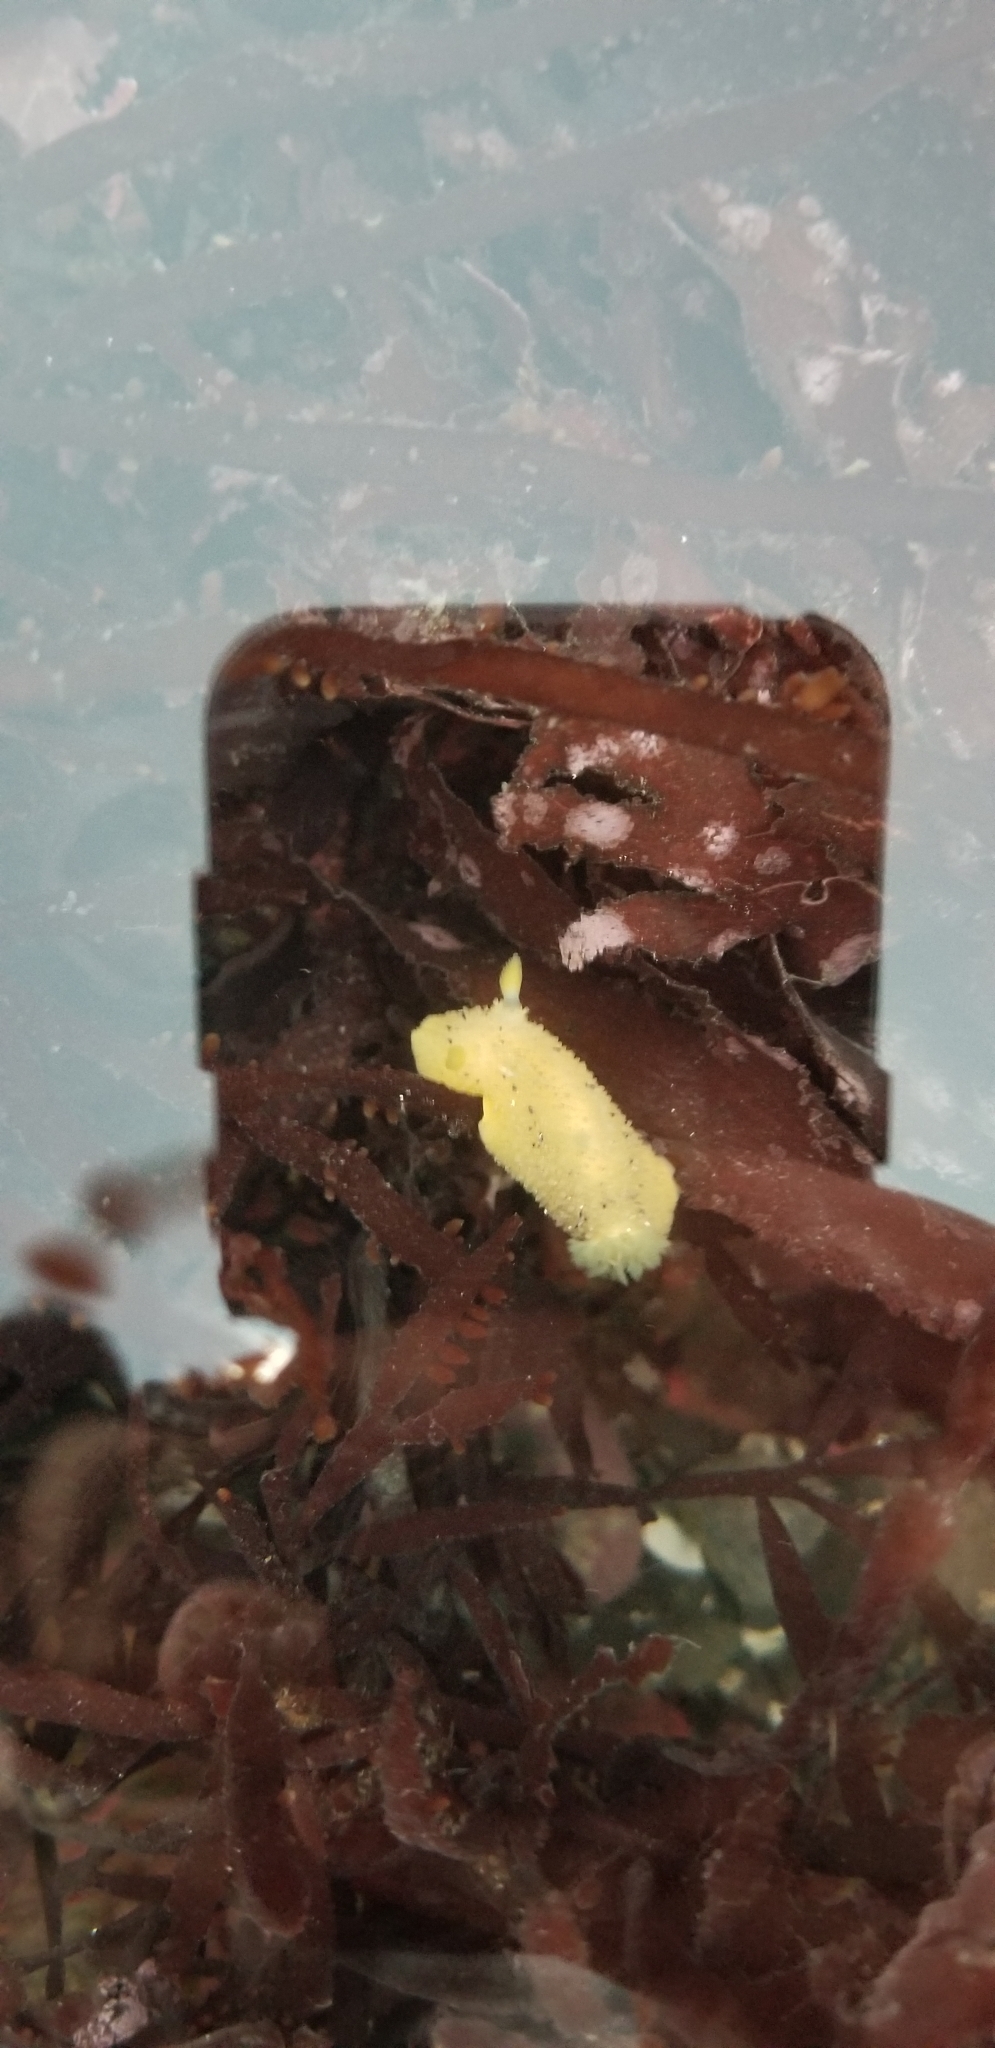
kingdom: Animalia
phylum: Mollusca
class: Gastropoda
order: Nudibranchia
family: Dorididae
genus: Doris
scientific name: Doris montereyensis
